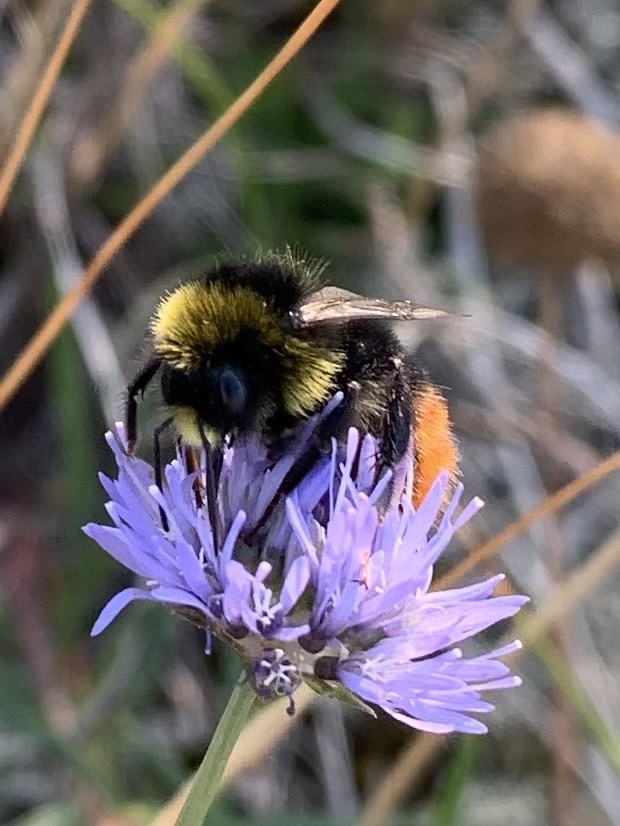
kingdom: Animalia
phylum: Arthropoda
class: Insecta
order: Hymenoptera
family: Apidae
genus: Bombus
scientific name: Bombus lapidarius
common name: Large red-tailed humble-bee
